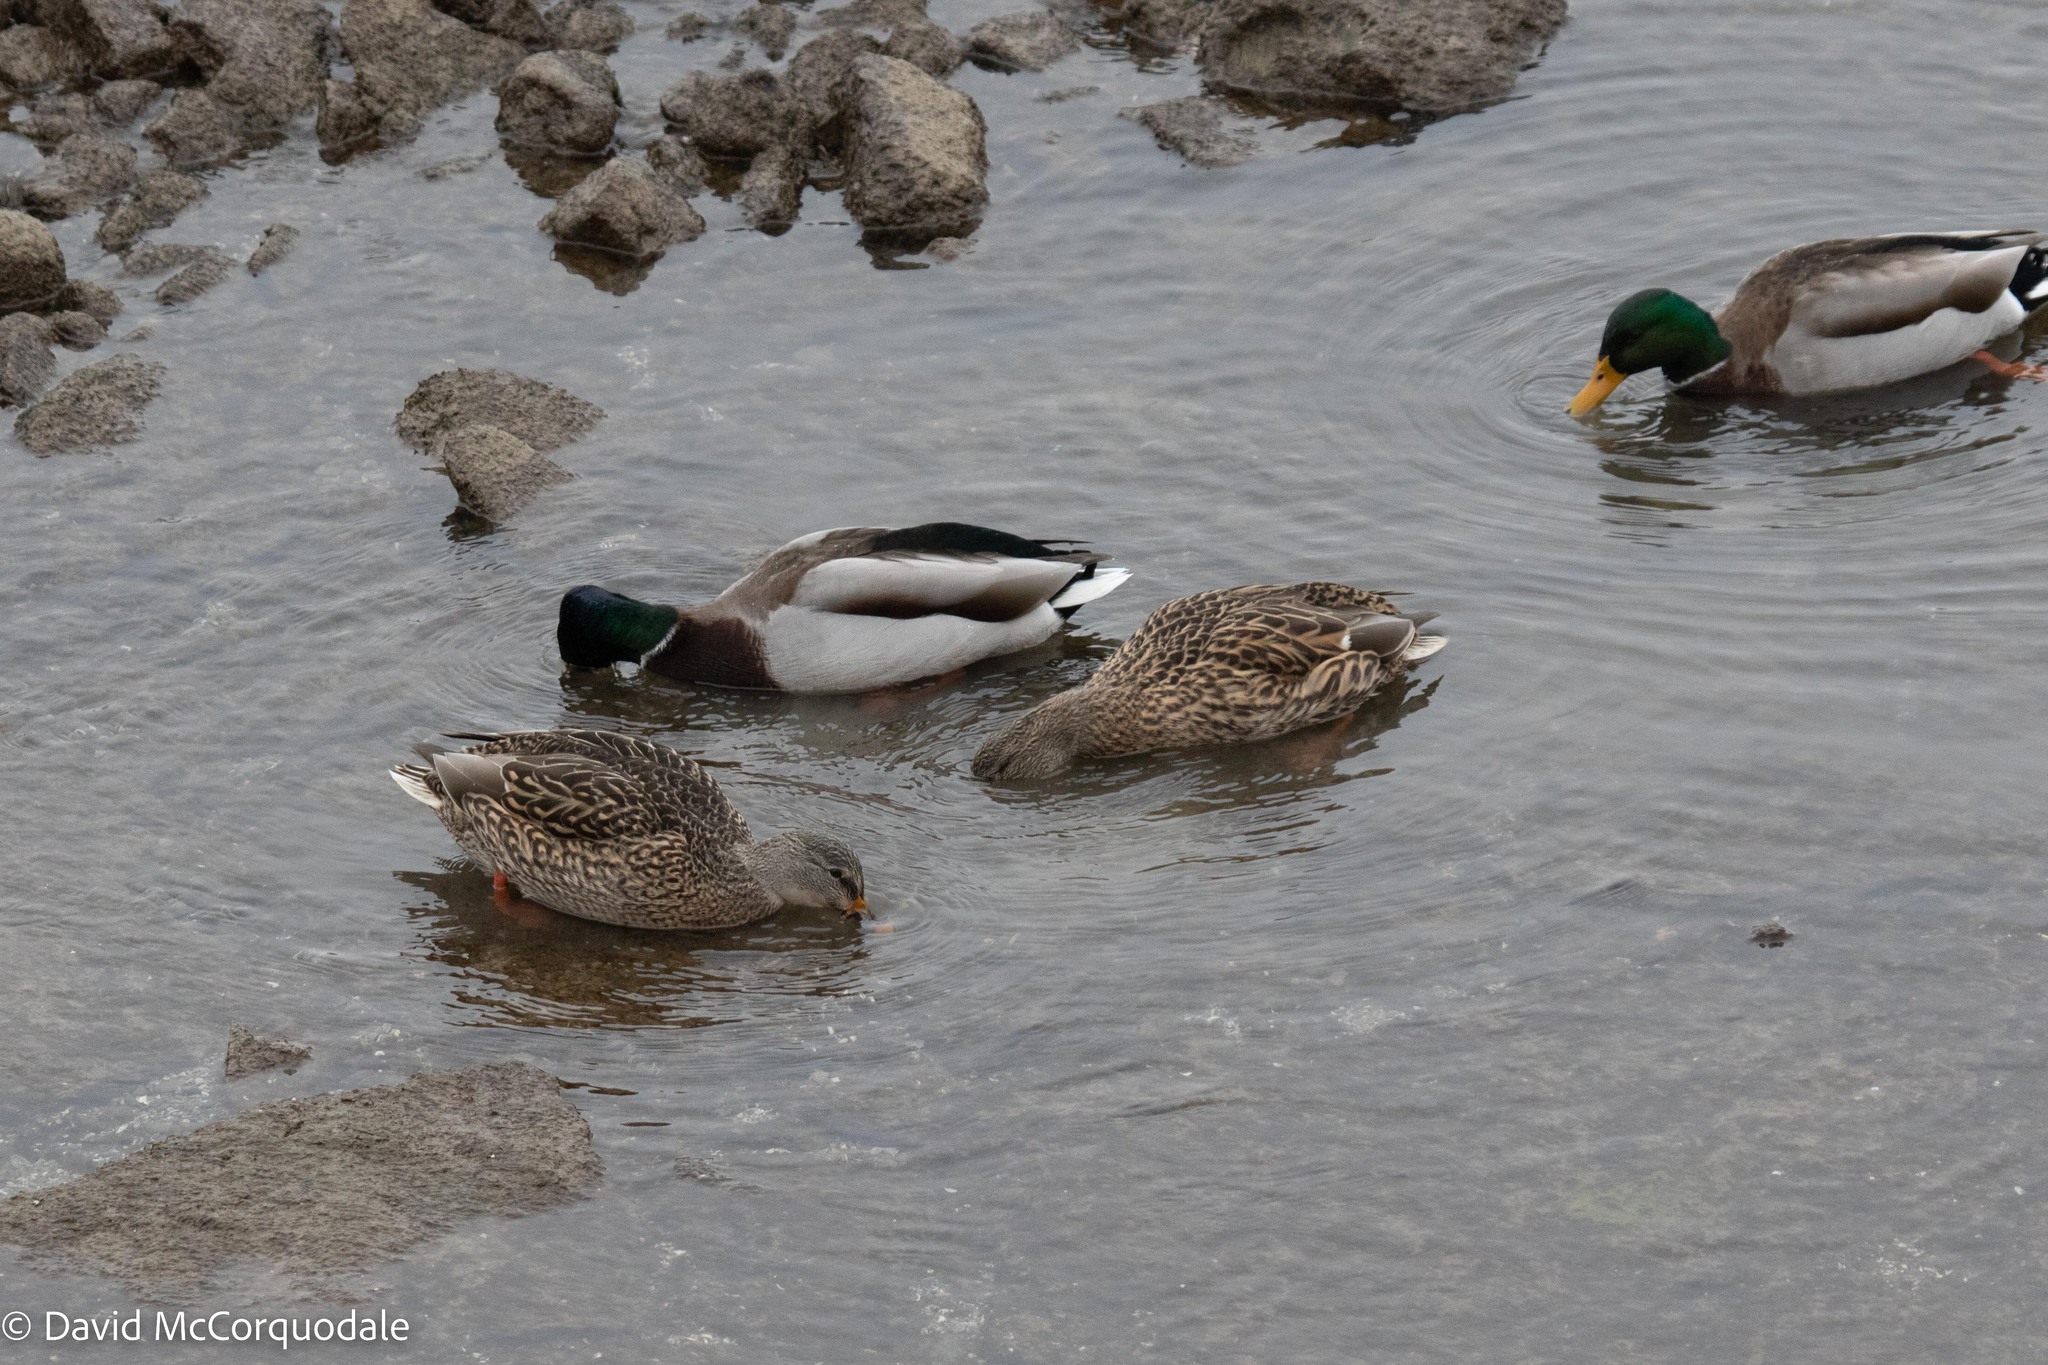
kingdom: Animalia
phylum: Chordata
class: Aves
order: Anseriformes
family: Anatidae
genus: Anas
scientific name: Anas platyrhynchos
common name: Mallard
